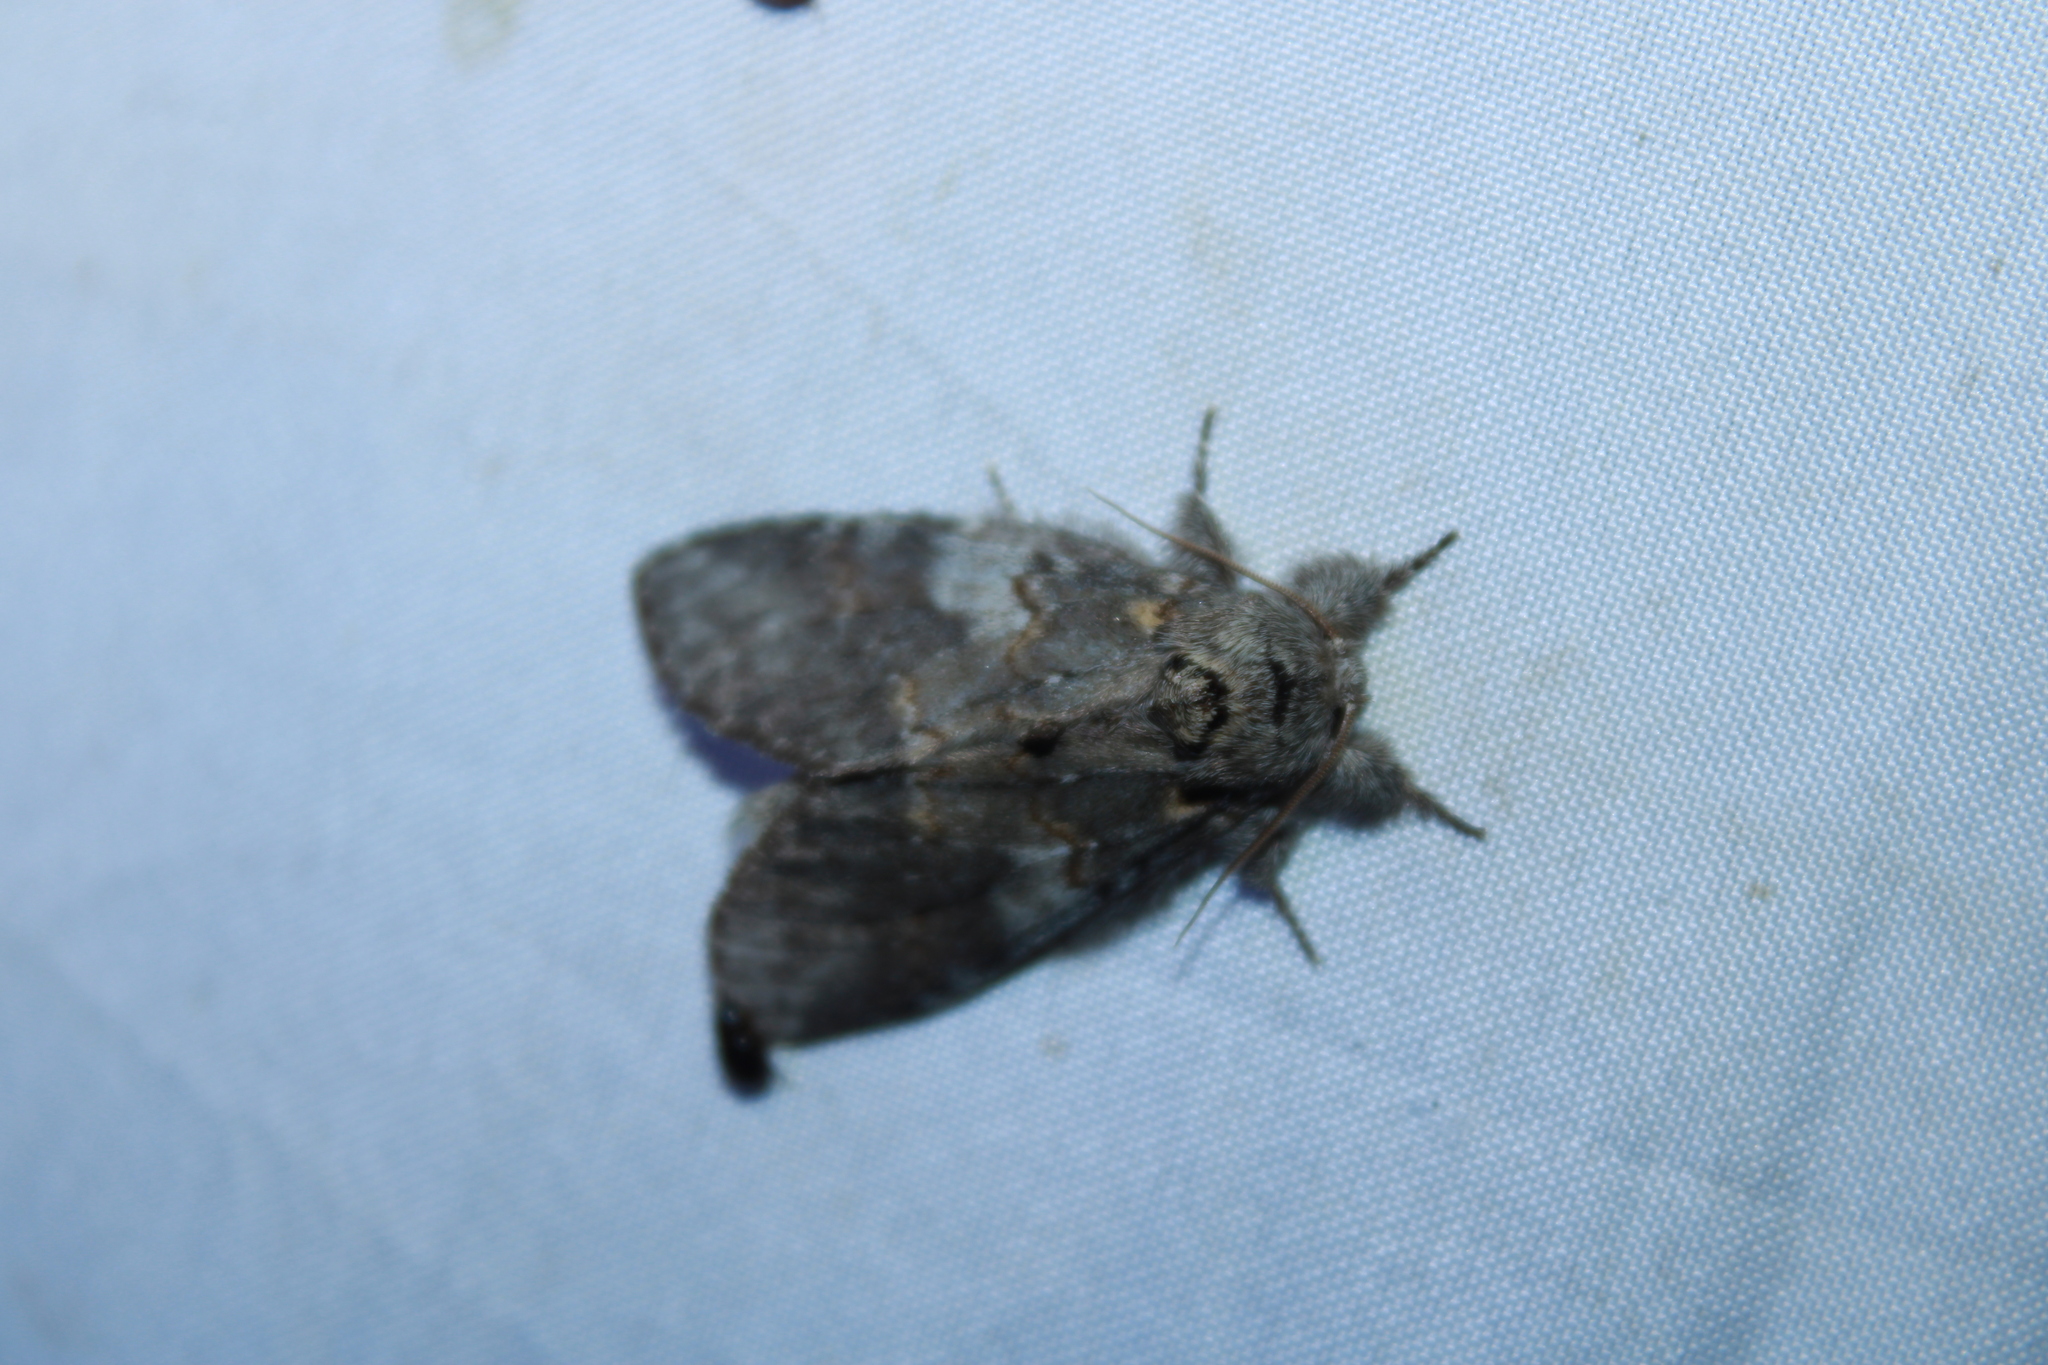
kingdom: Animalia
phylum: Arthropoda
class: Insecta
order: Lepidoptera
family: Notodontidae
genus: Peridea
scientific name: Peridea angulosa
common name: Angulose prominent
